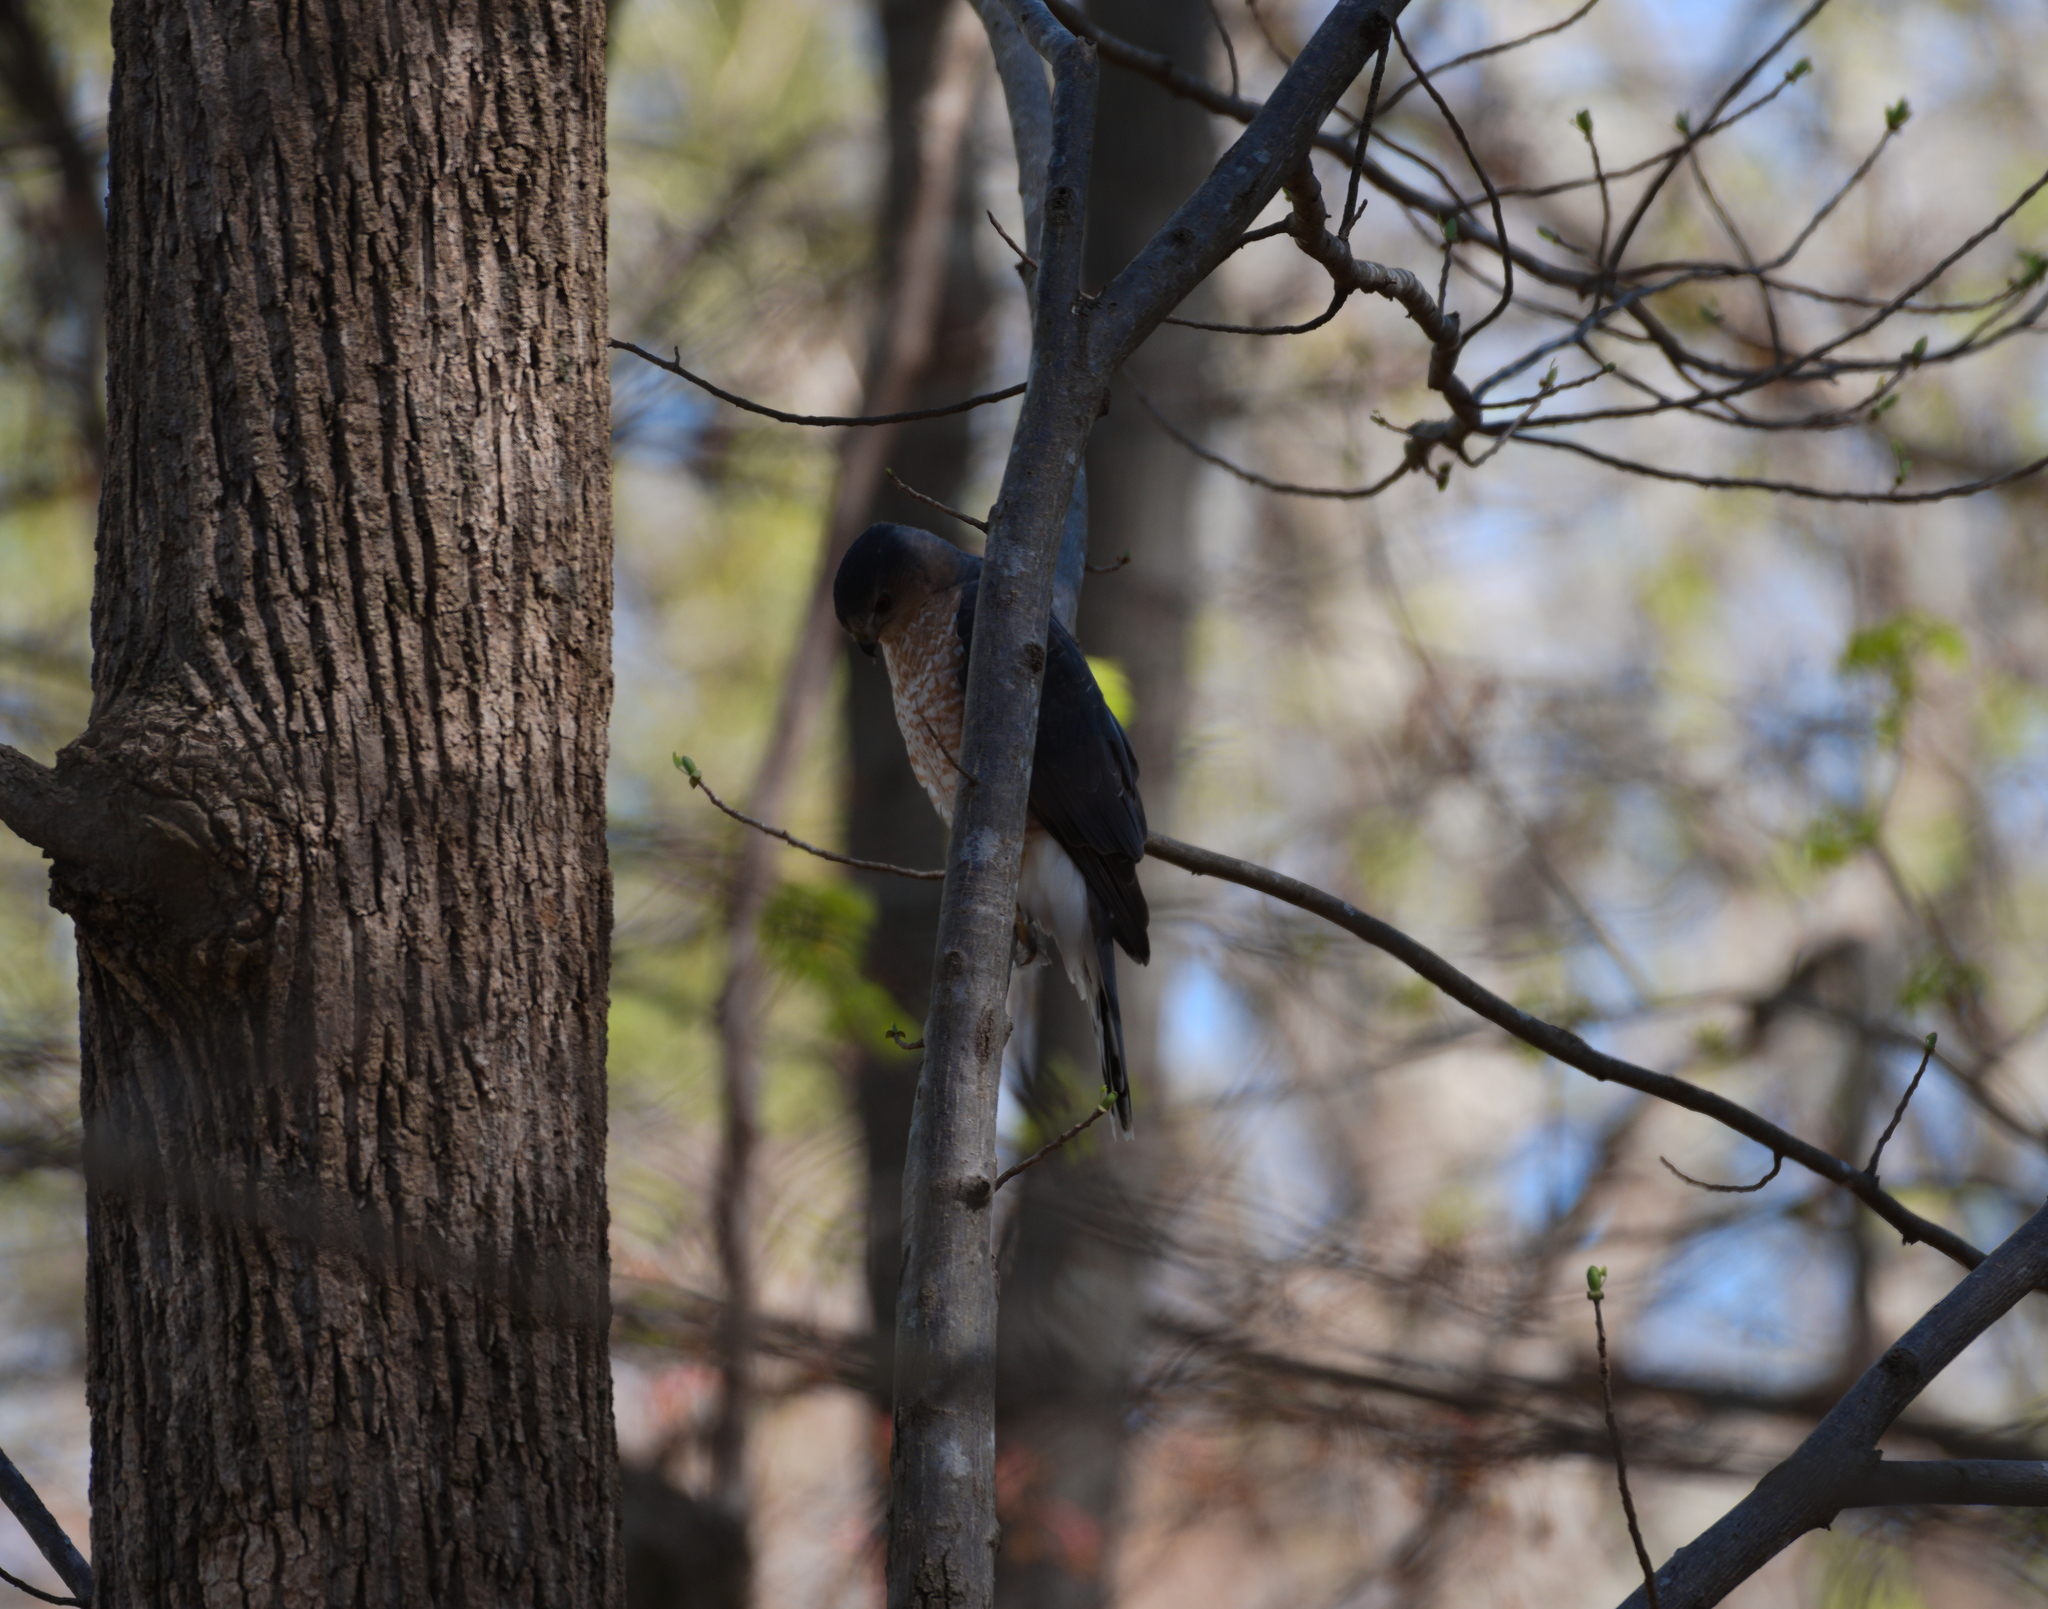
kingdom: Animalia
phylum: Chordata
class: Aves
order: Accipitriformes
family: Accipitridae
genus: Accipiter
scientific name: Accipiter cooperii
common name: Cooper's hawk
